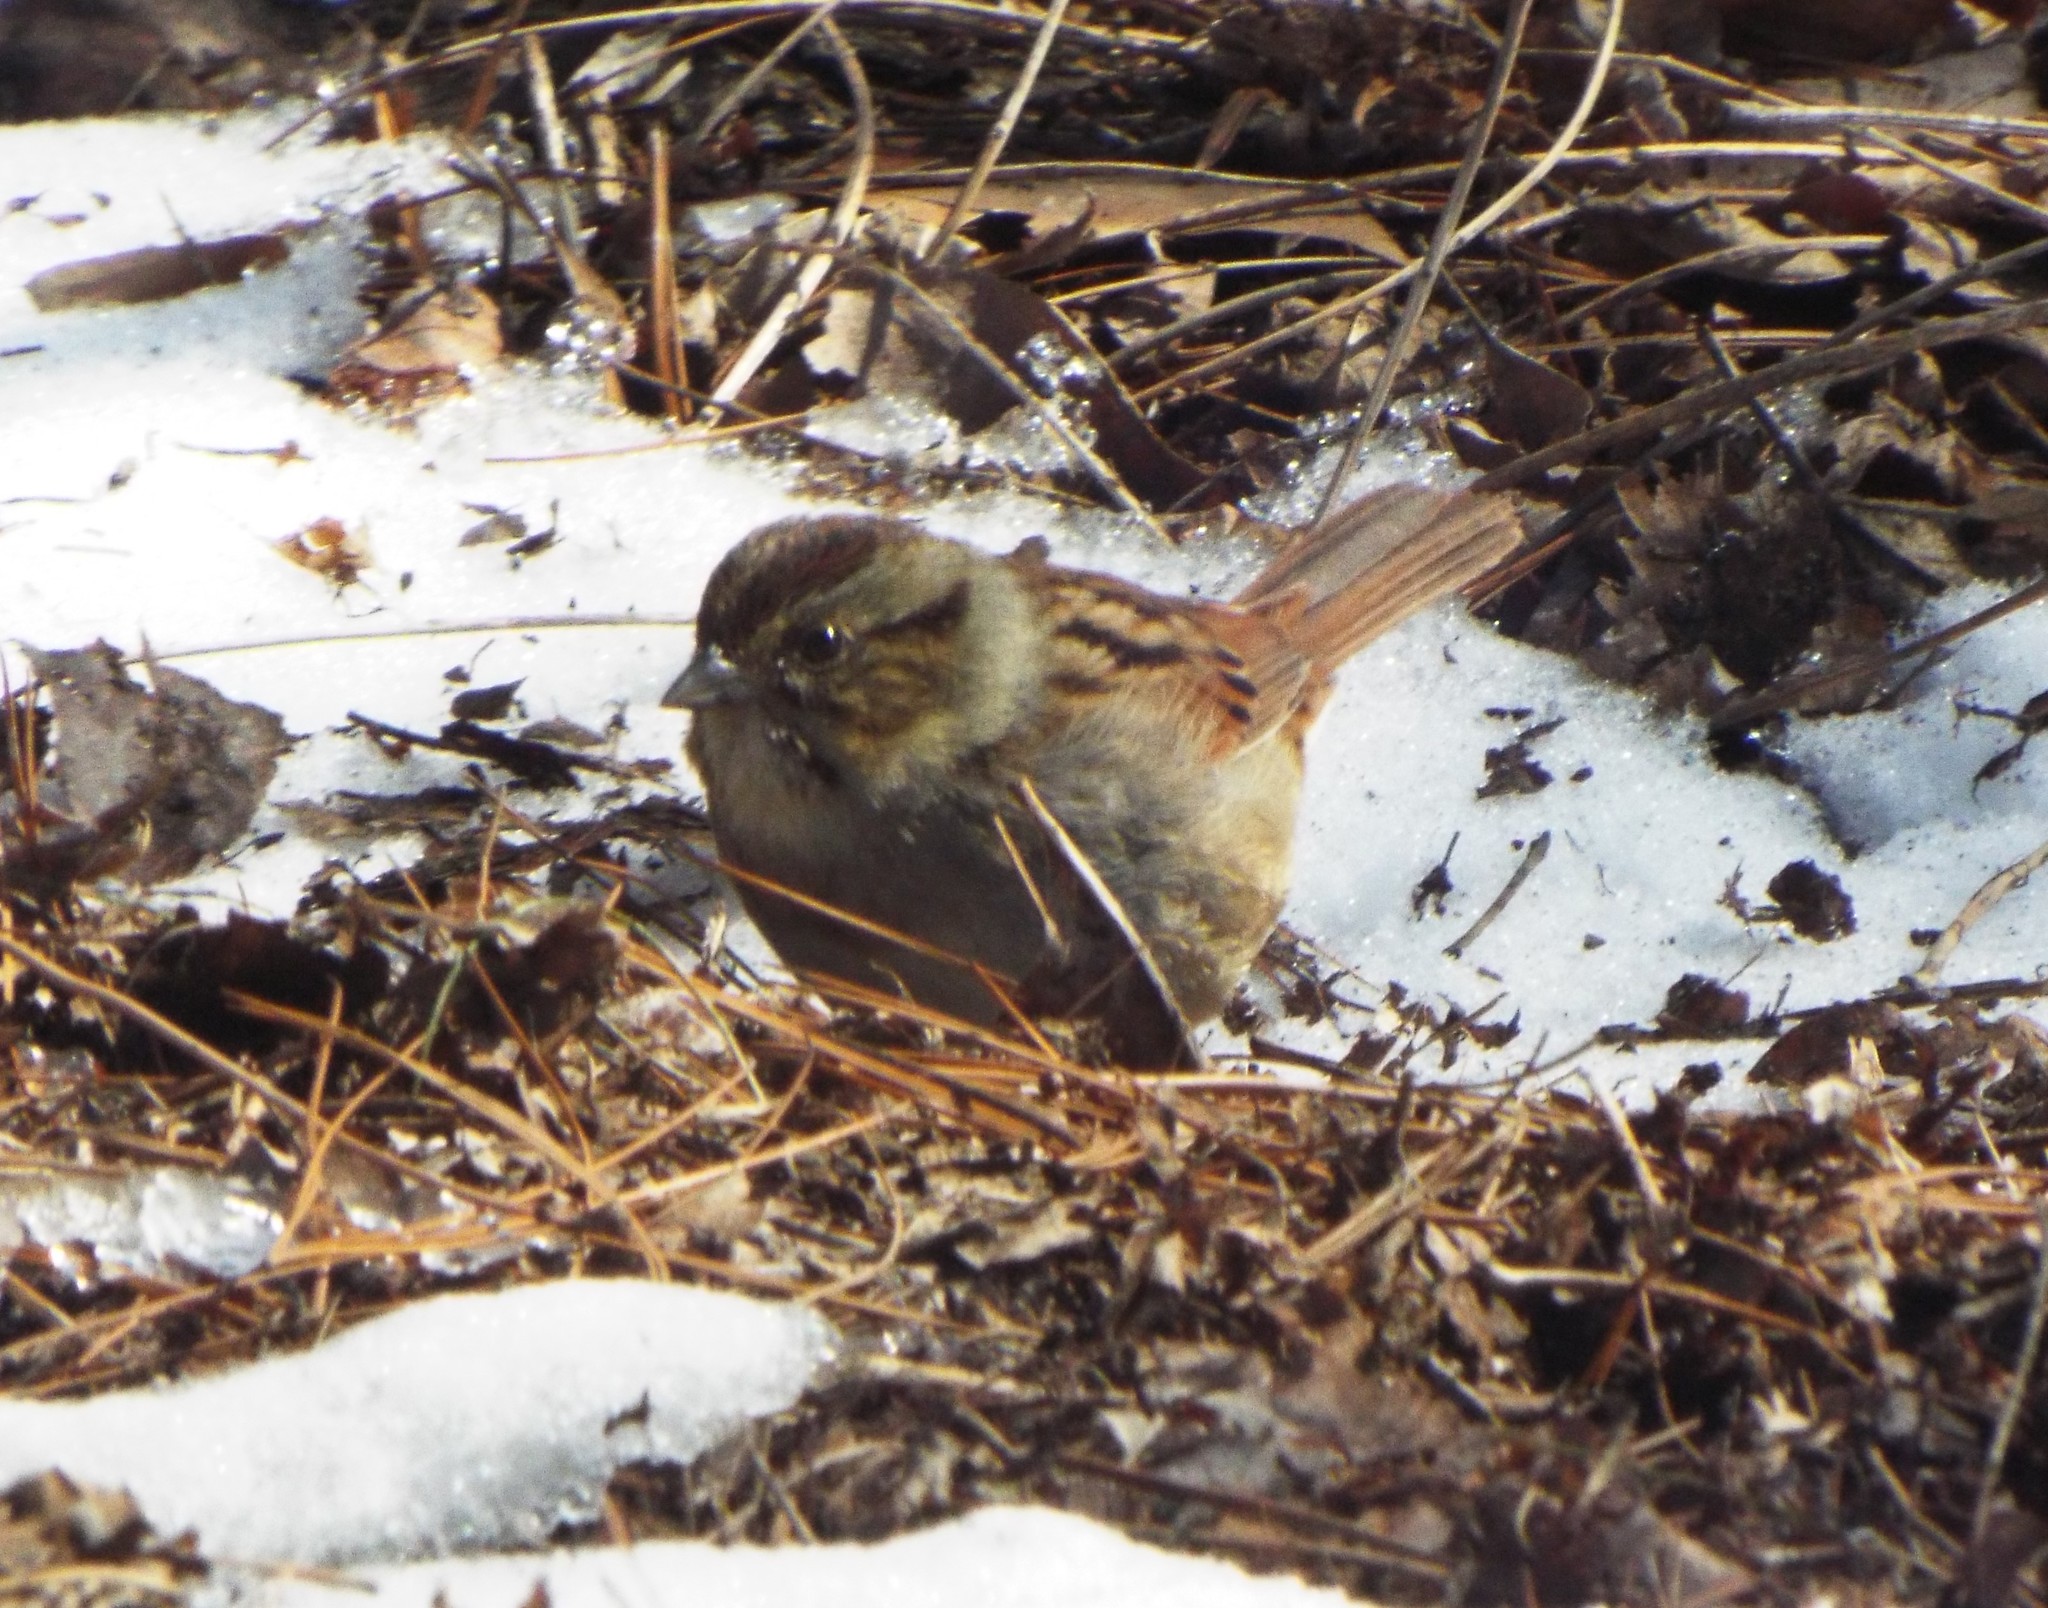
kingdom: Animalia
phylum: Chordata
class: Aves
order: Passeriformes
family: Passerellidae
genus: Melospiza
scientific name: Melospiza georgiana
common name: Swamp sparrow
